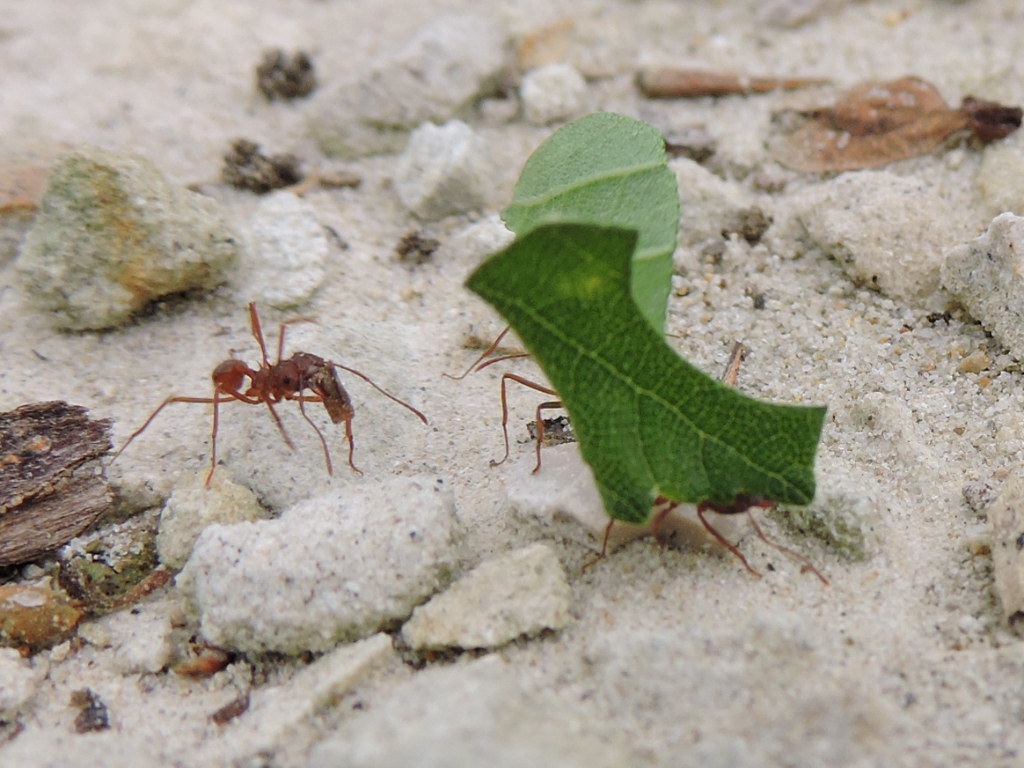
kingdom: Animalia
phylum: Arthropoda
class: Insecta
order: Hymenoptera
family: Formicidae
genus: Atta
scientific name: Atta texana
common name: Texas leafcutting ant
